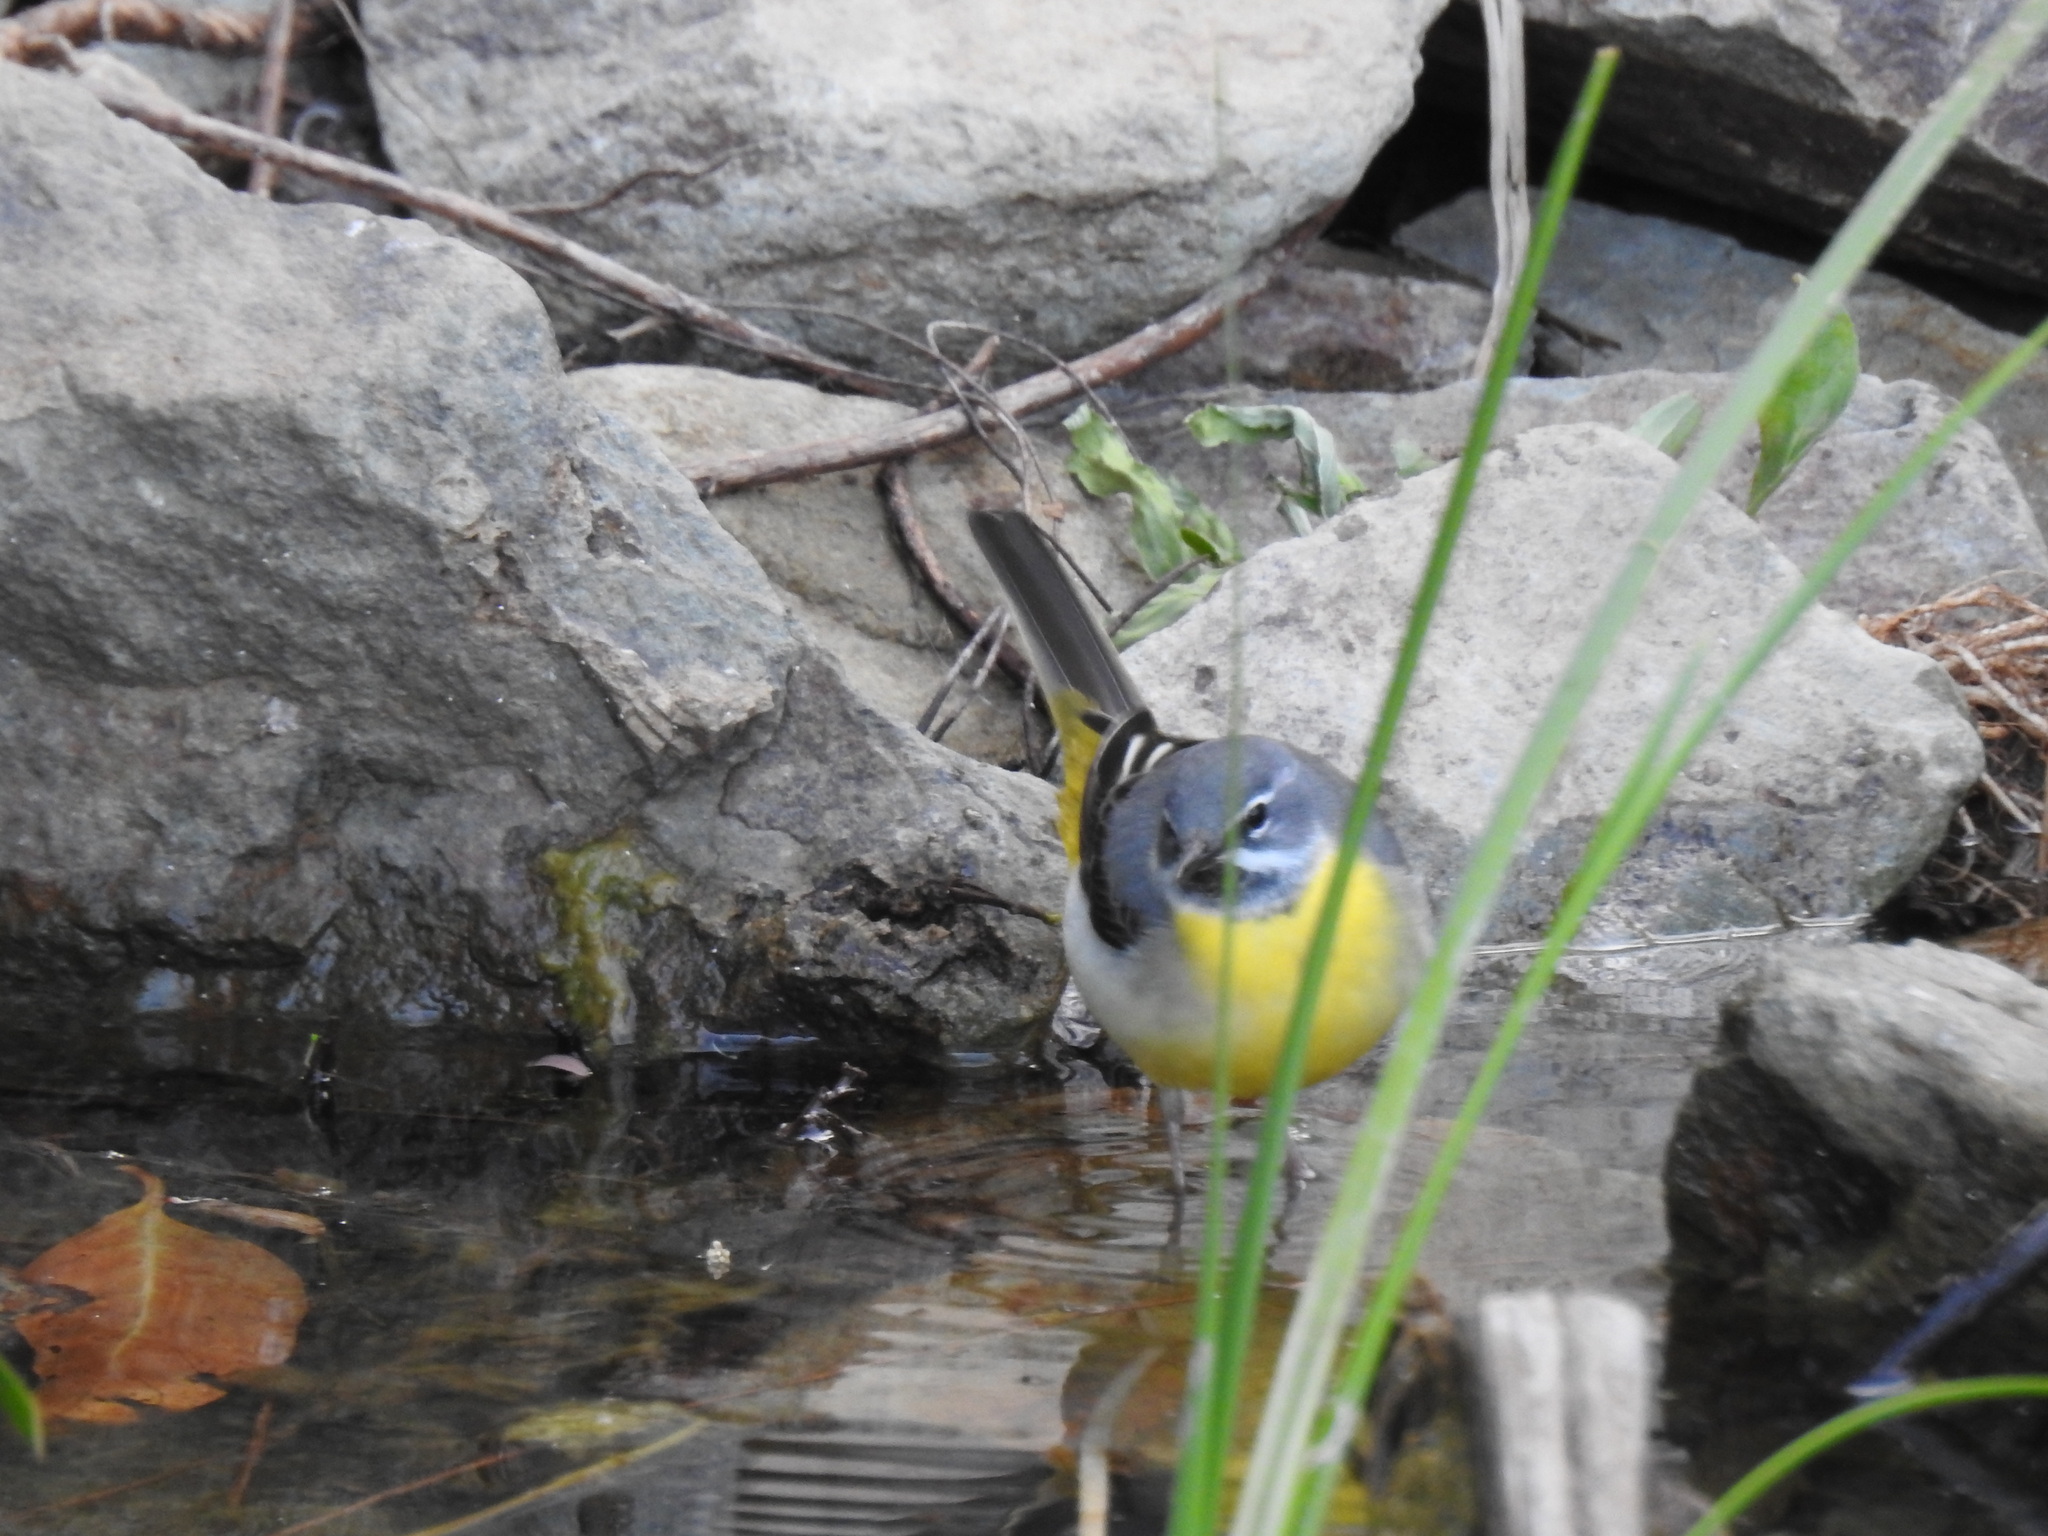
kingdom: Animalia
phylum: Chordata
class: Aves
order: Passeriformes
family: Motacillidae
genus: Motacilla
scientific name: Motacilla cinerea
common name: Grey wagtail
